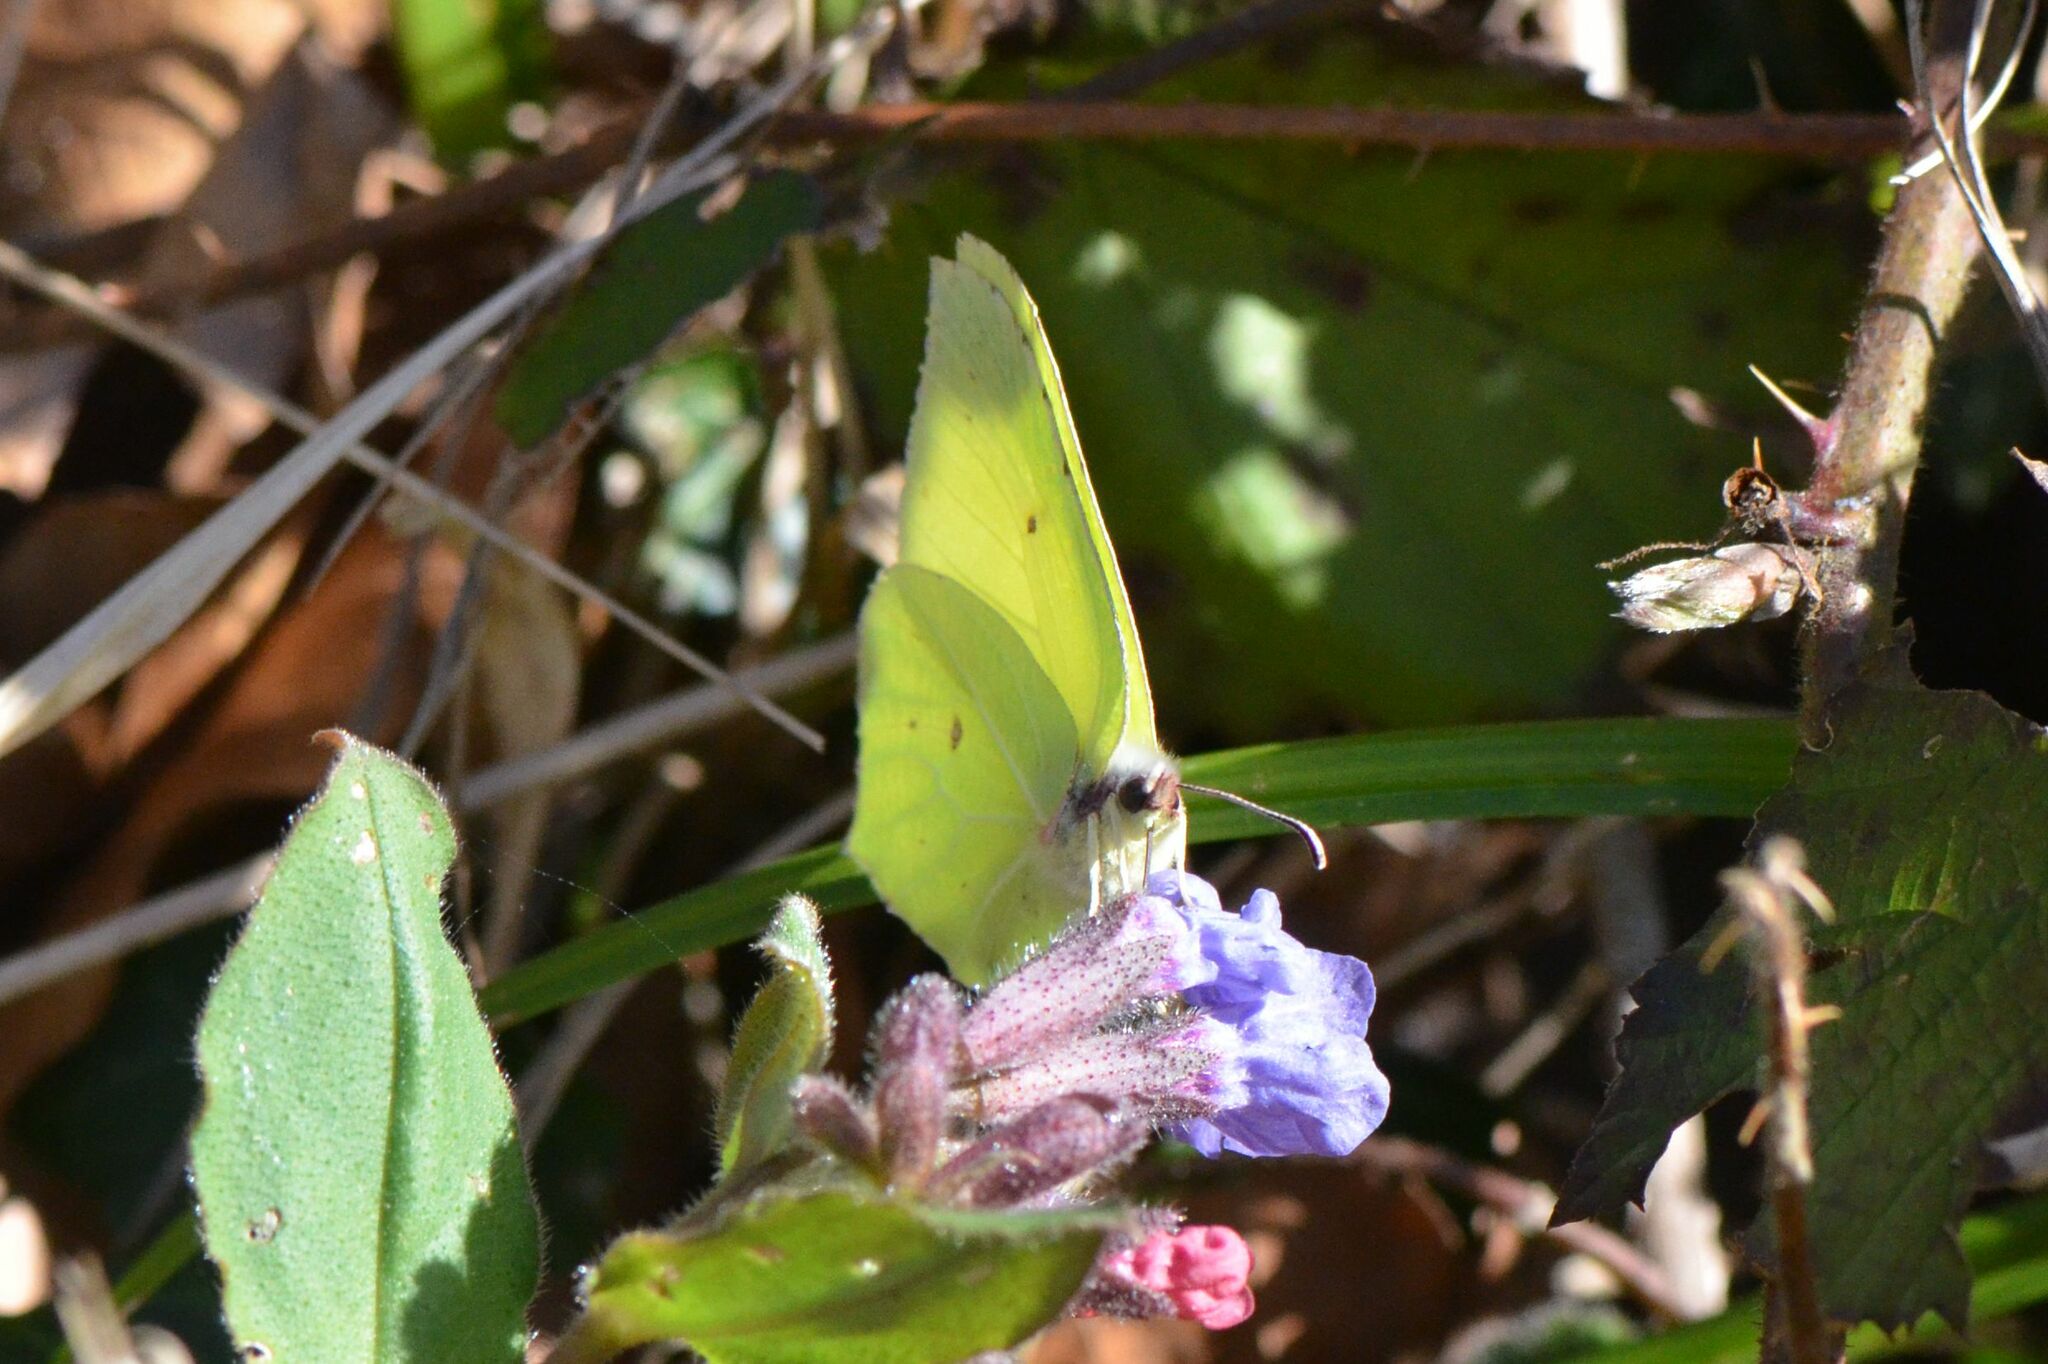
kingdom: Animalia
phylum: Arthropoda
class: Insecta
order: Lepidoptera
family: Pieridae
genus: Gonepteryx
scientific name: Gonepteryx rhamni
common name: Brimstone
